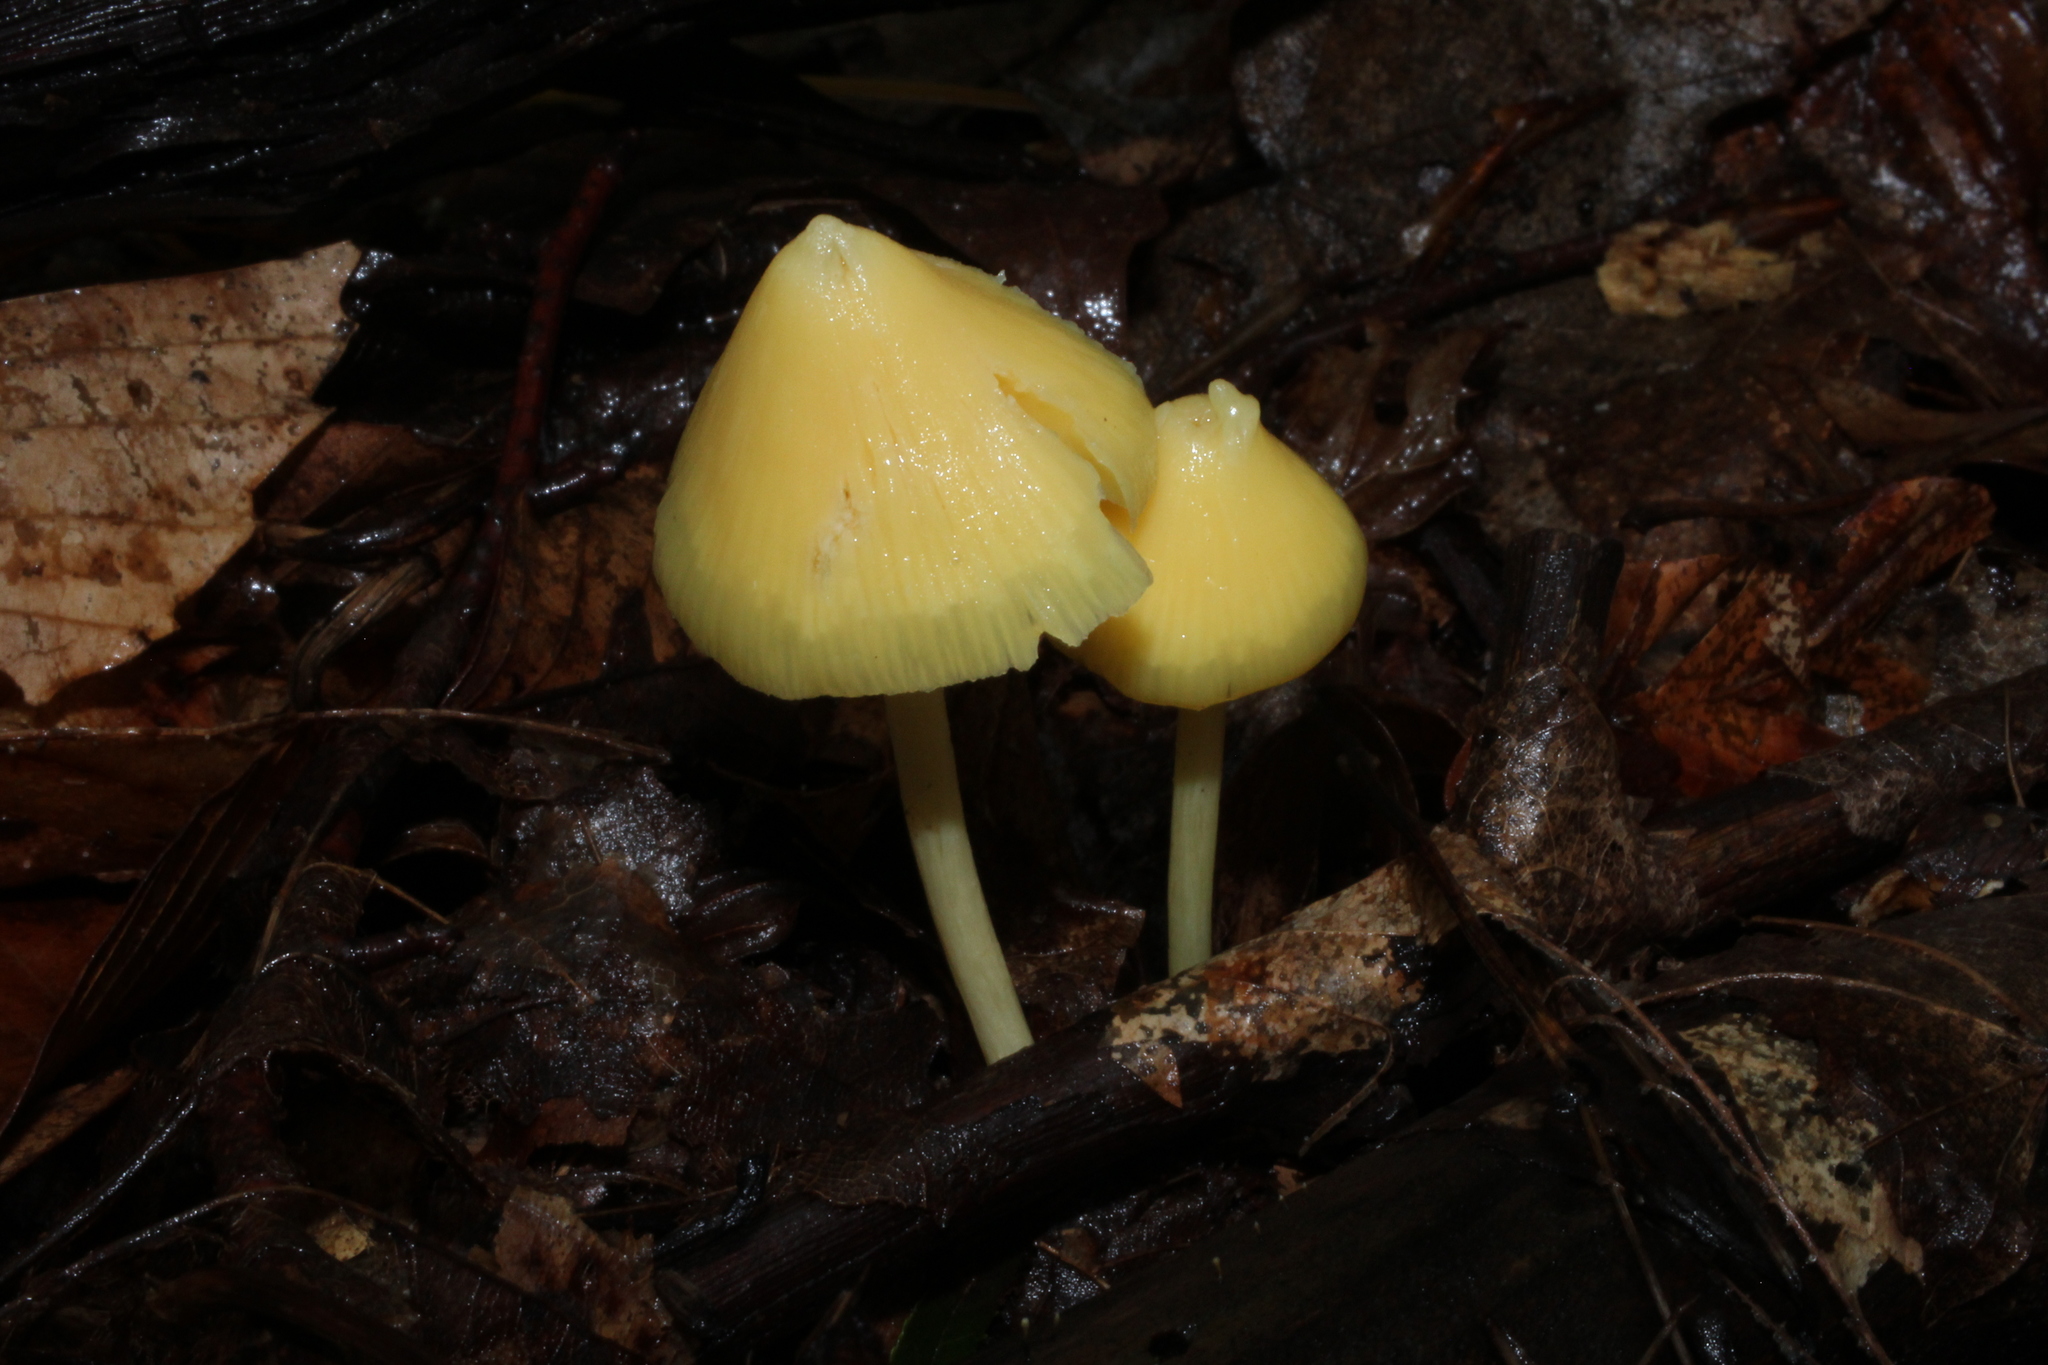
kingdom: Fungi
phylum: Basidiomycota
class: Agaricomycetes
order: Agaricales
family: Entolomataceae
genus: Entoloma
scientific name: Entoloma murrayi
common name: Yellow unicorn entoloma
